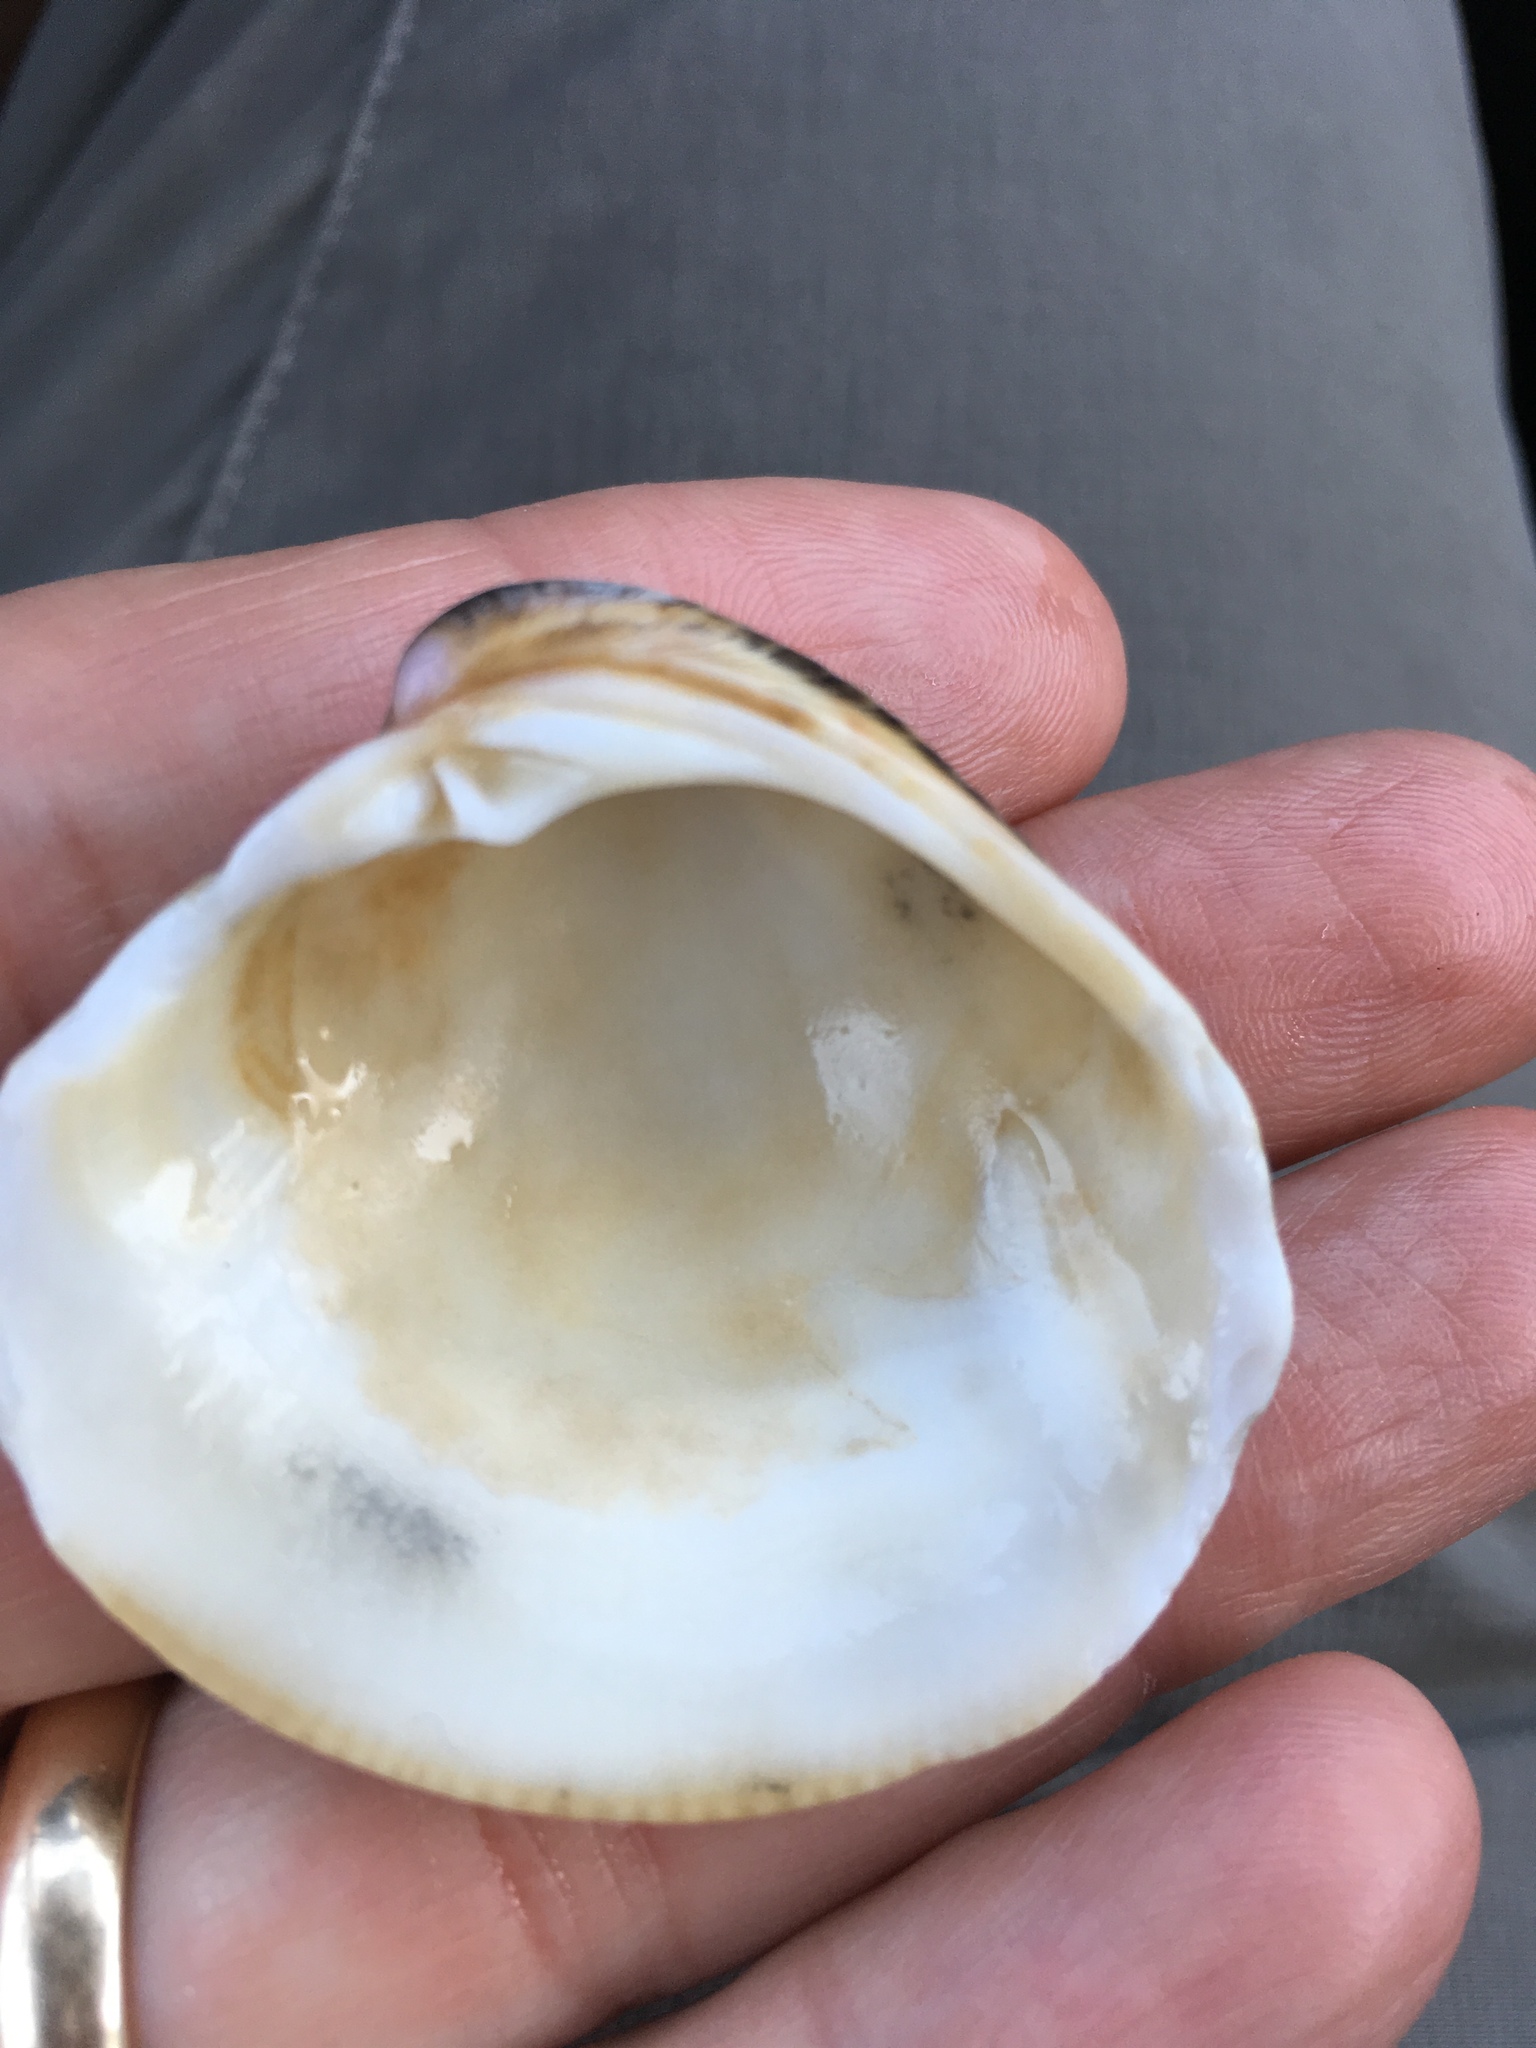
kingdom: Animalia
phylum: Mollusca
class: Bivalvia
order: Venerida
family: Veneridae
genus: Chionopsis
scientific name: Chionopsis intapurpurea
